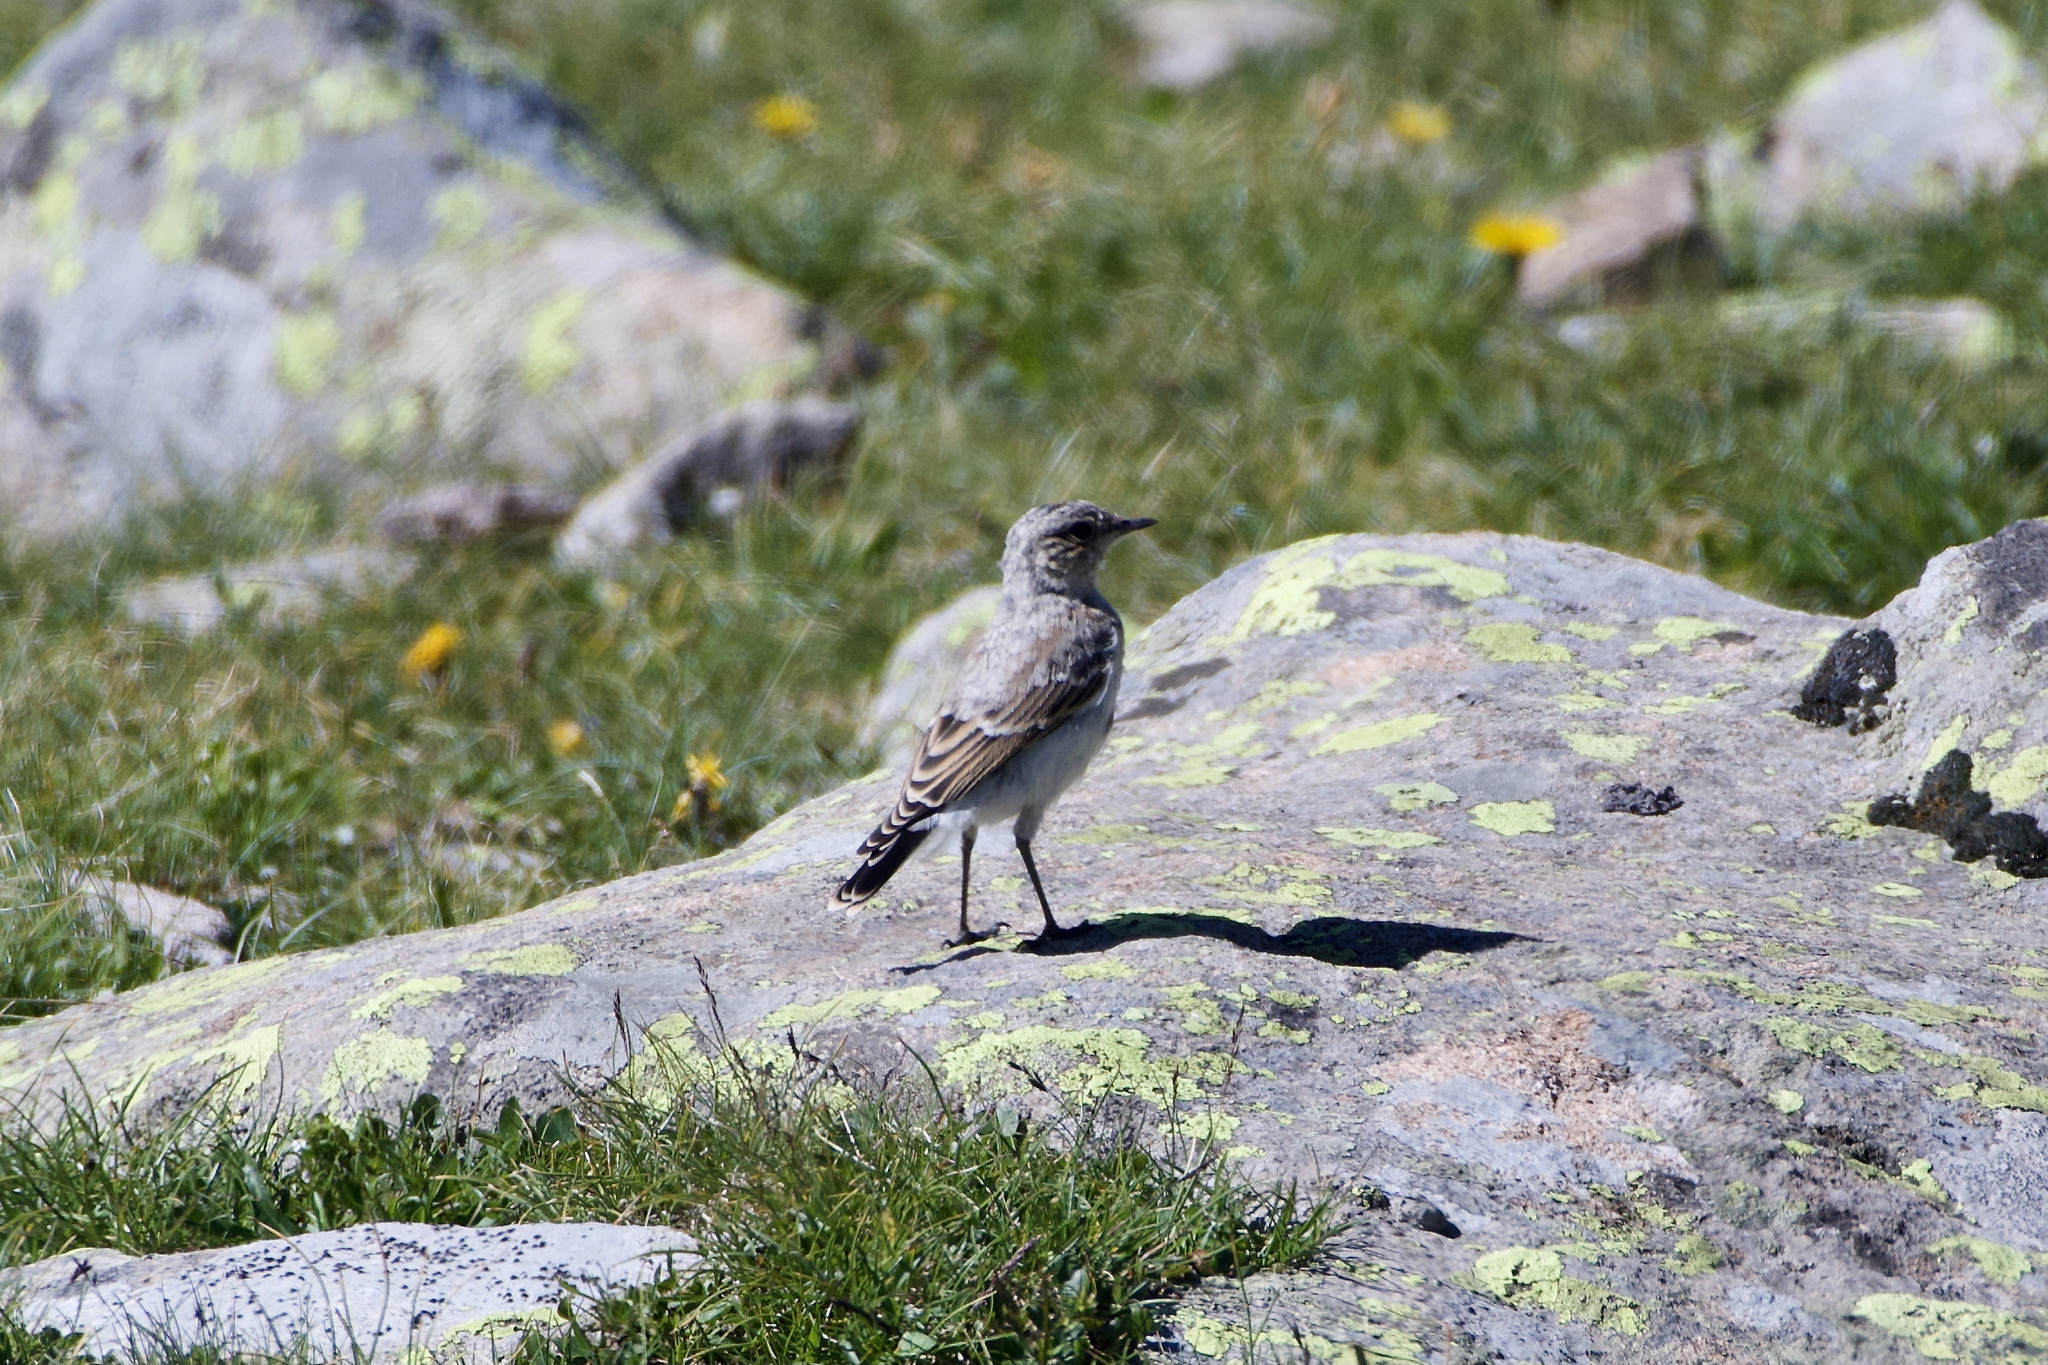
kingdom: Animalia
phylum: Chordata
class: Aves
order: Passeriformes
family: Muscicapidae
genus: Oenanthe
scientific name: Oenanthe oenanthe
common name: Northern wheatear
